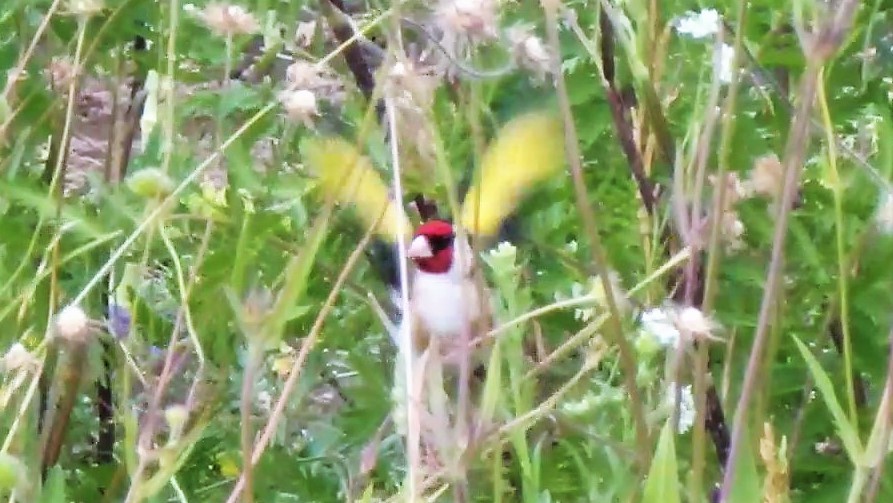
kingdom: Animalia
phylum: Chordata
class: Aves
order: Passeriformes
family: Fringillidae
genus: Carduelis
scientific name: Carduelis carduelis
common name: European goldfinch
